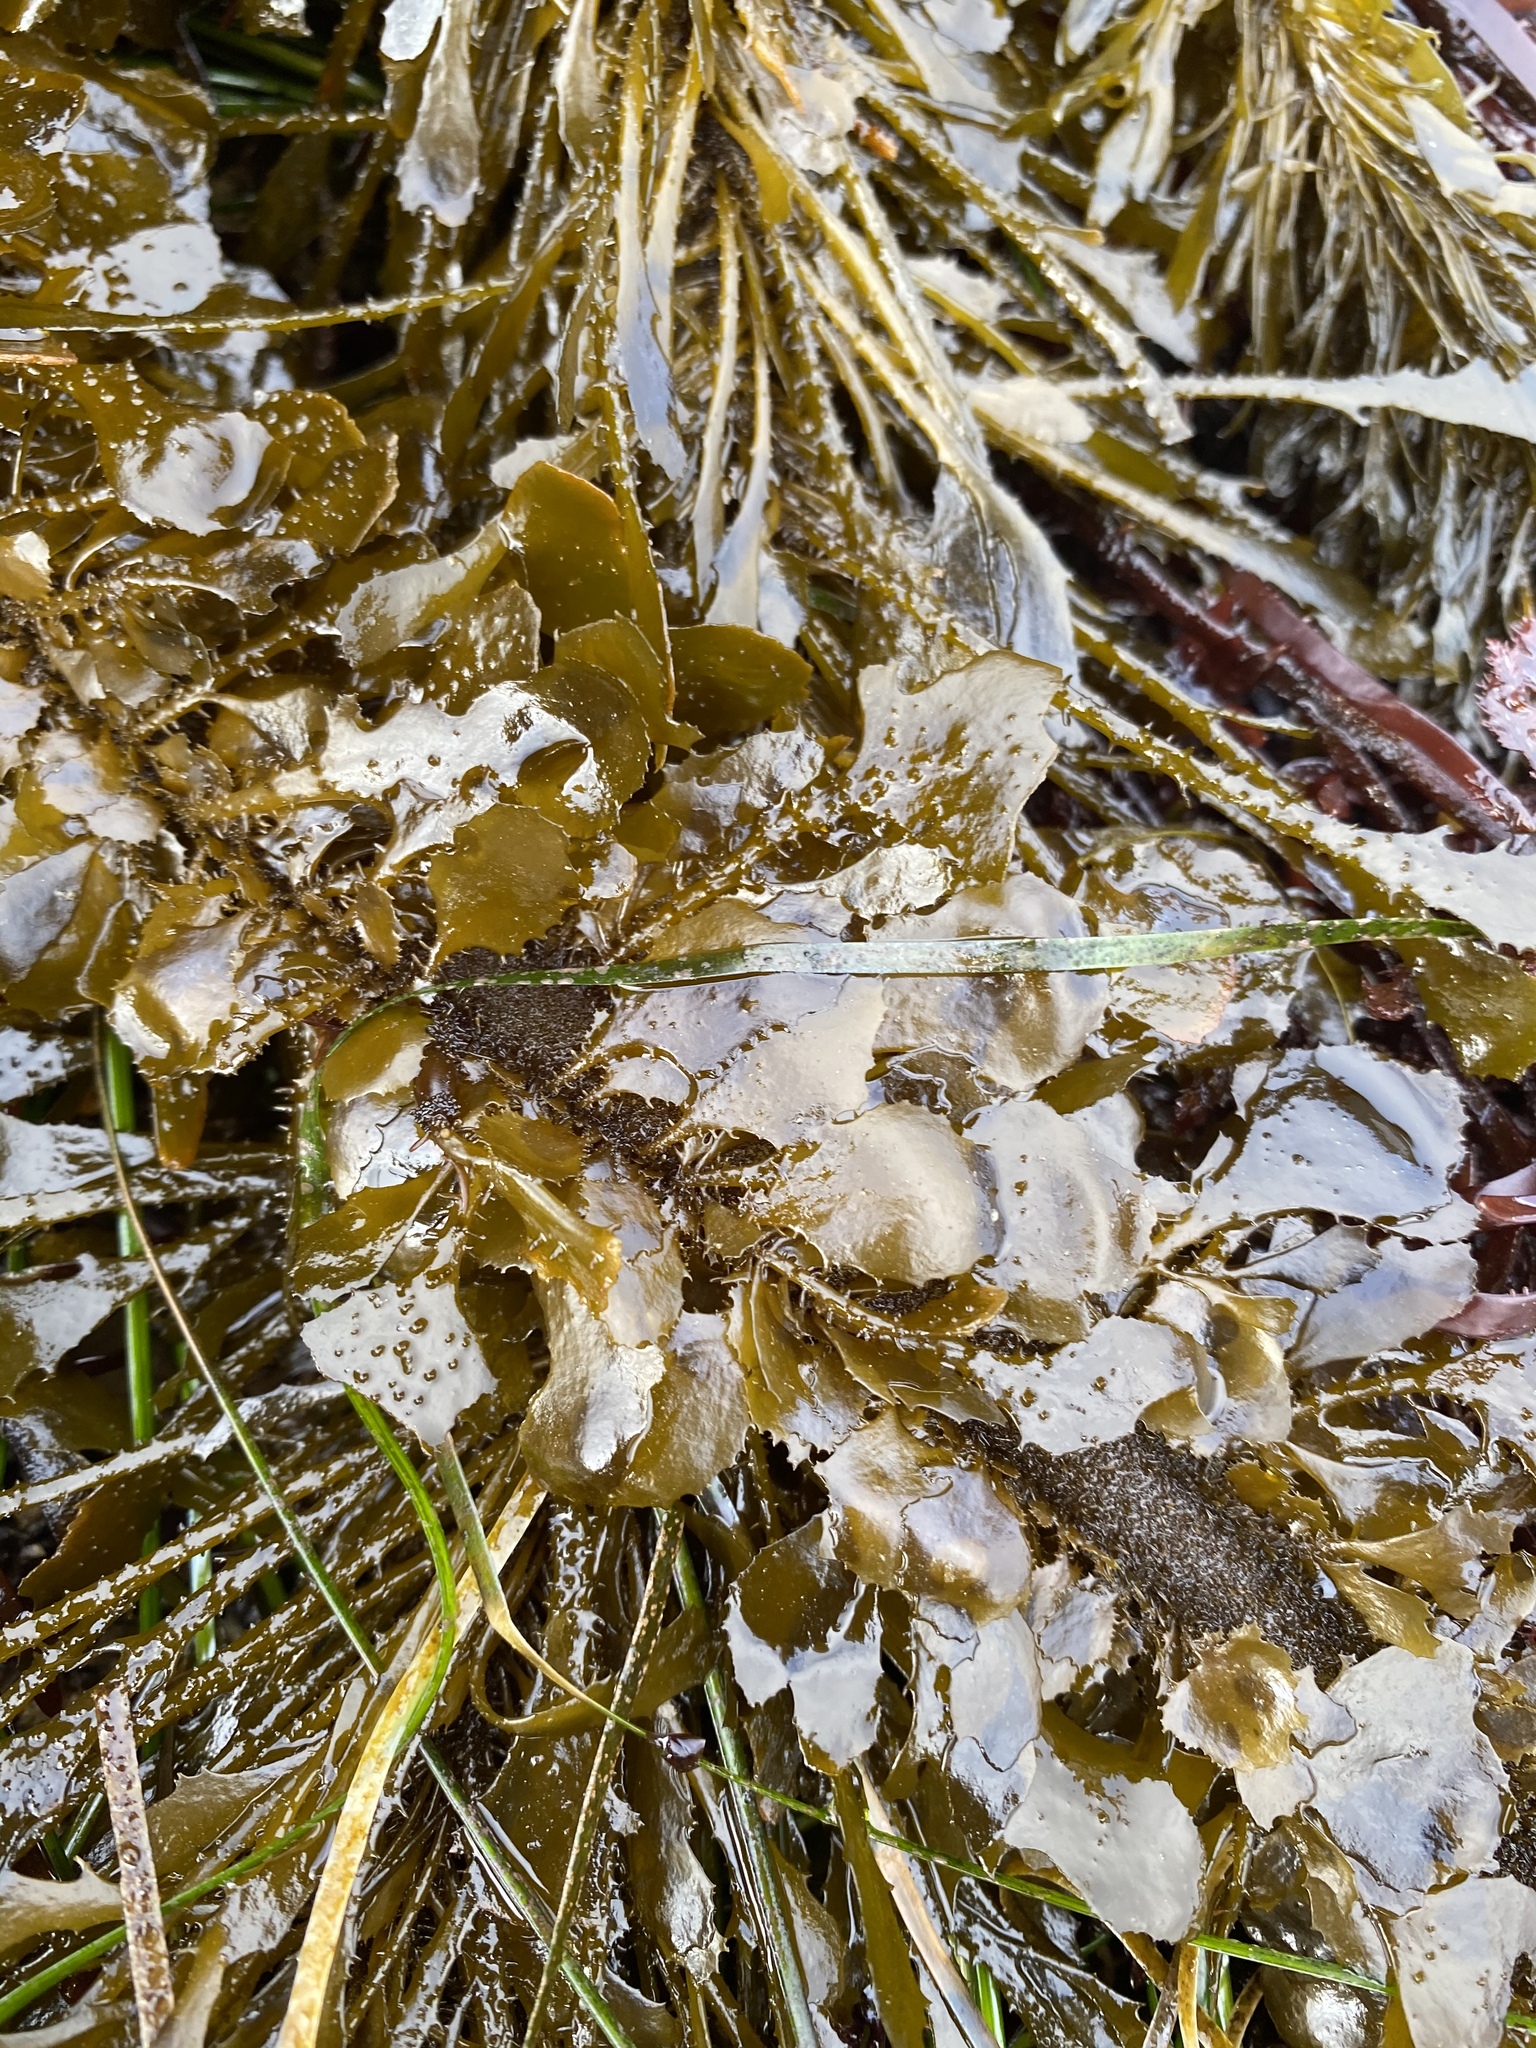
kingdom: Chromista
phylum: Ochrophyta
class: Phaeophyceae
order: Laminariales
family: Lessoniaceae
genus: Egregia
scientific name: Egregia menziesii
